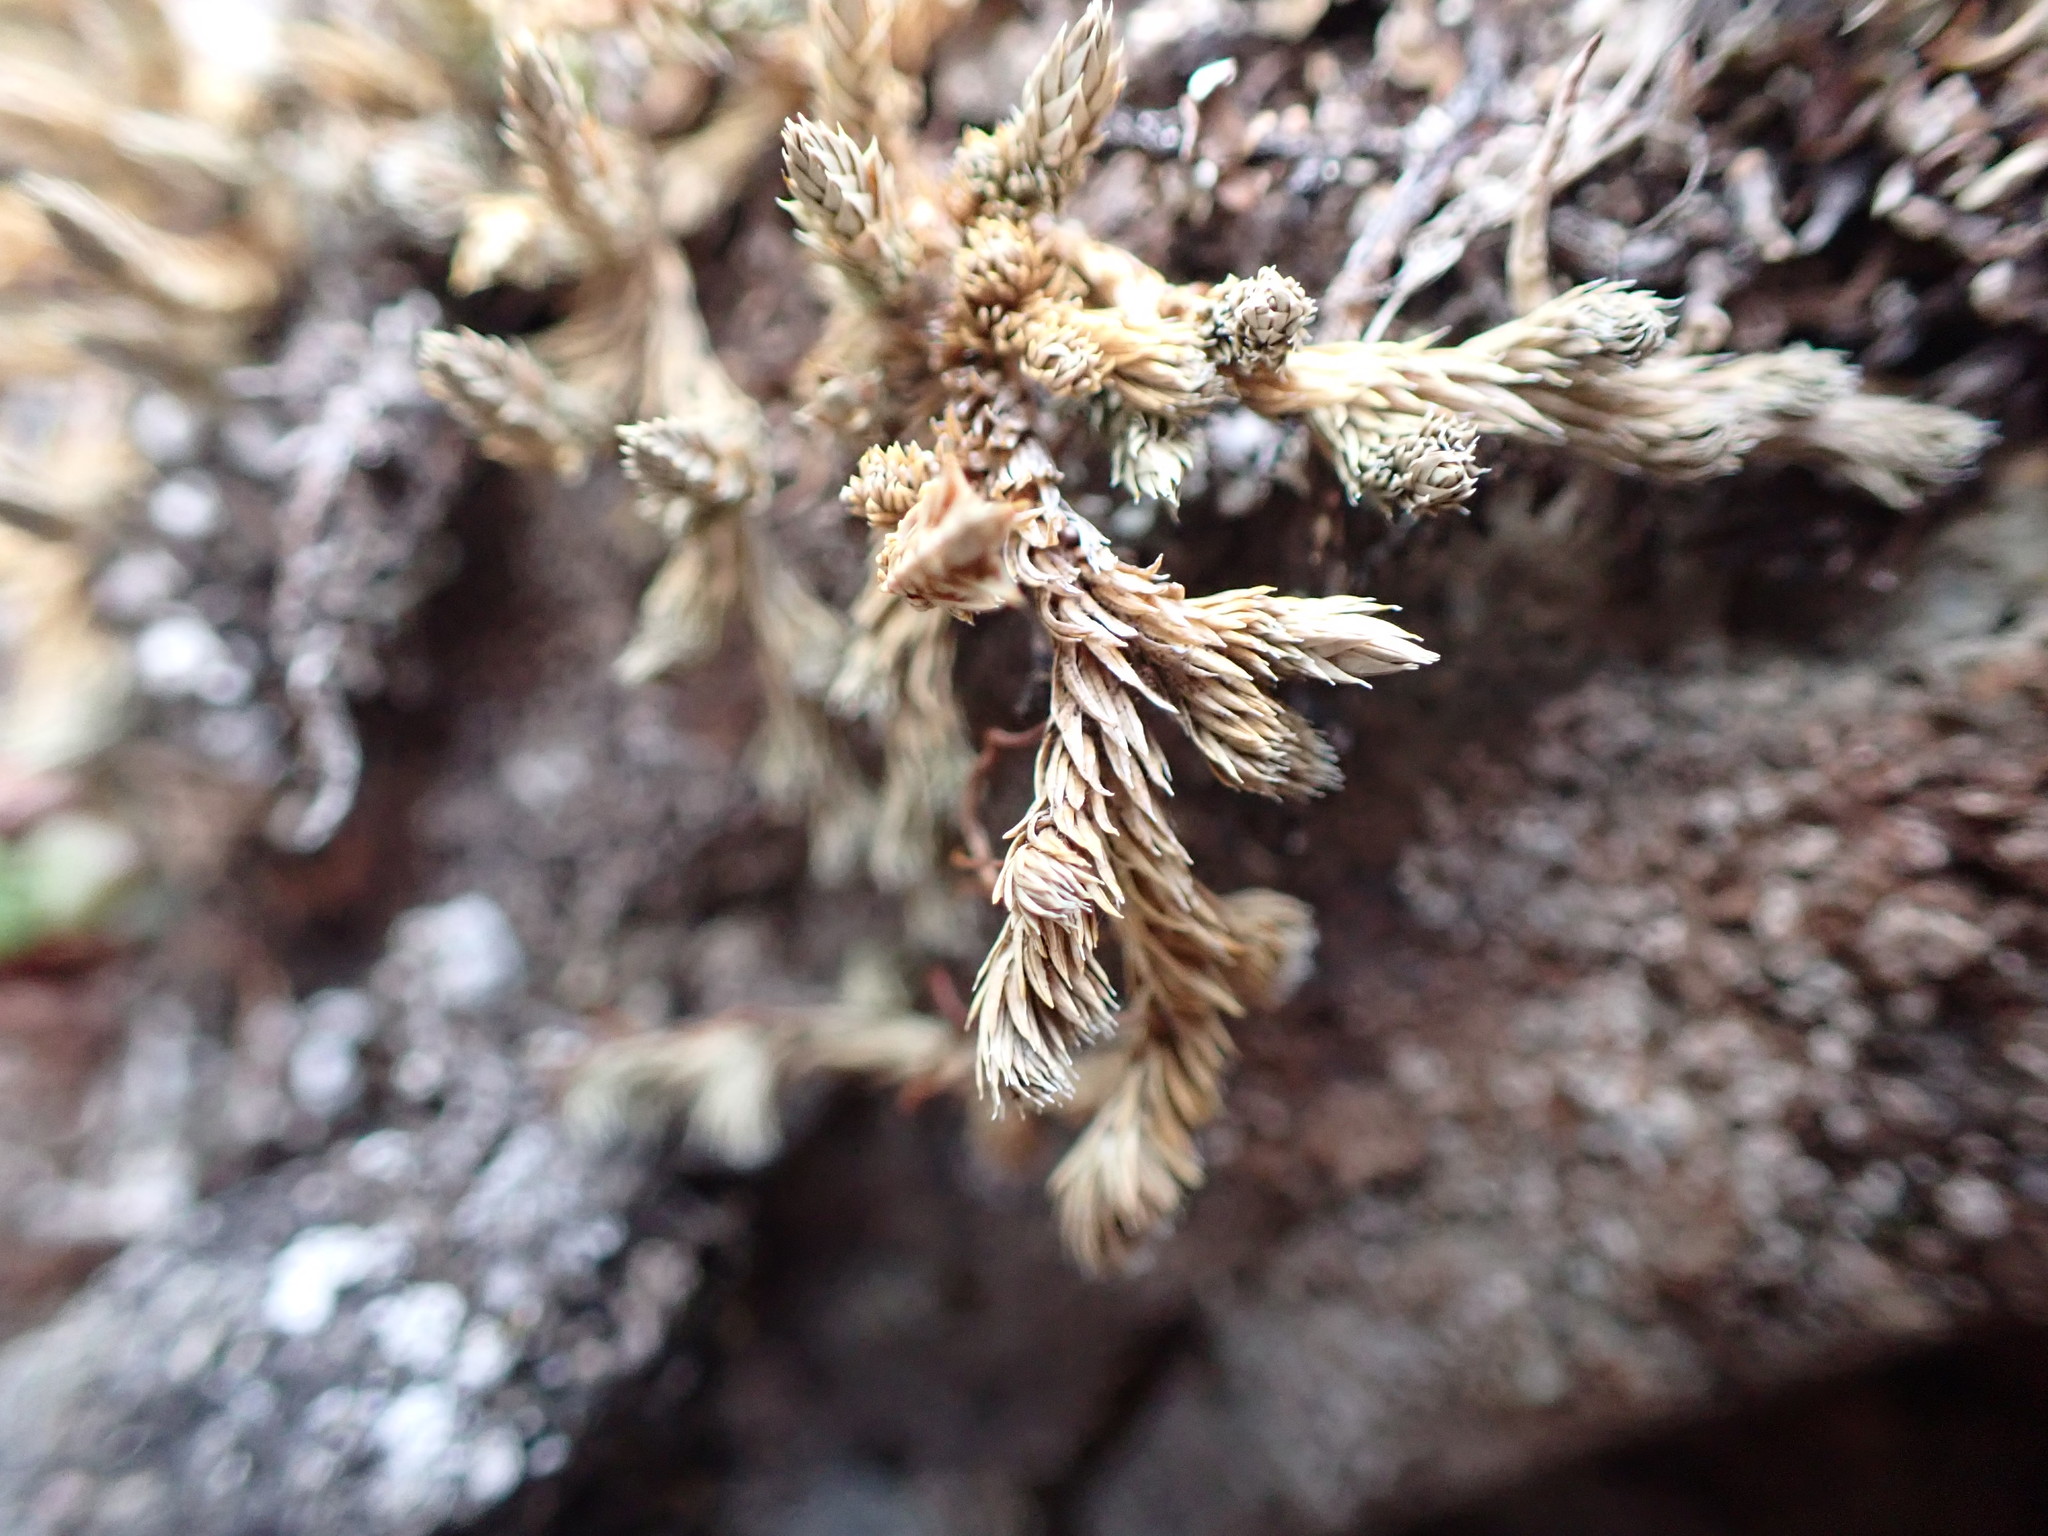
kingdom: Plantae
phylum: Tracheophyta
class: Lycopodiopsida
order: Selaginellales
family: Selaginellaceae
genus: Selaginella
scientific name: Selaginella densa
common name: Mountain spike-moss
